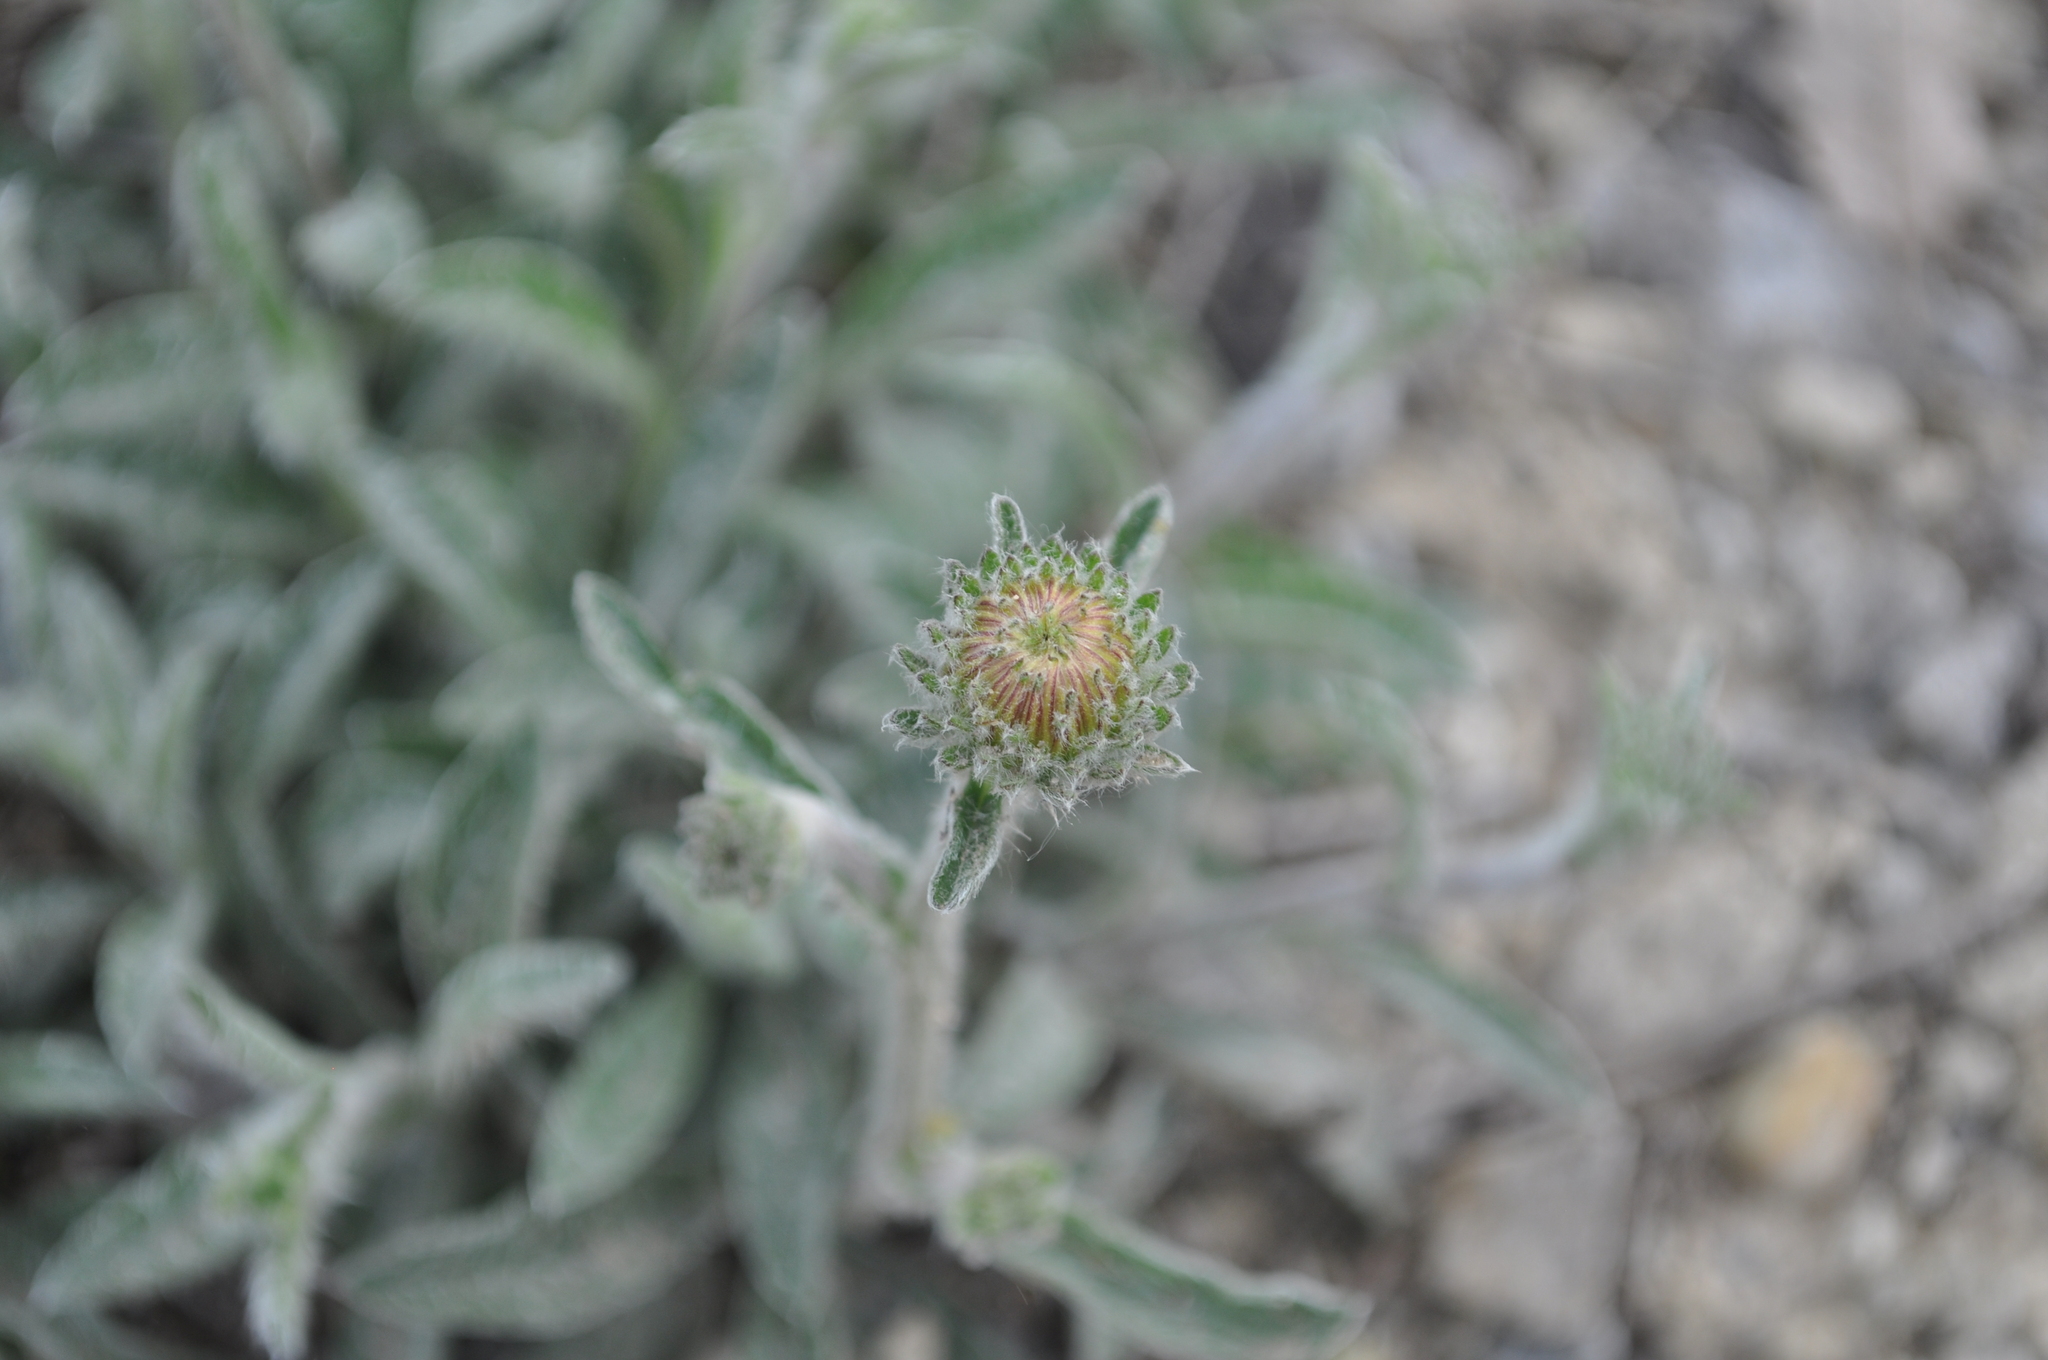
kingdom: Plantae
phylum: Tracheophyta
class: Magnoliopsida
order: Asterales
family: Asteraceae
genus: Pentanema
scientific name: Pentanema montanum
